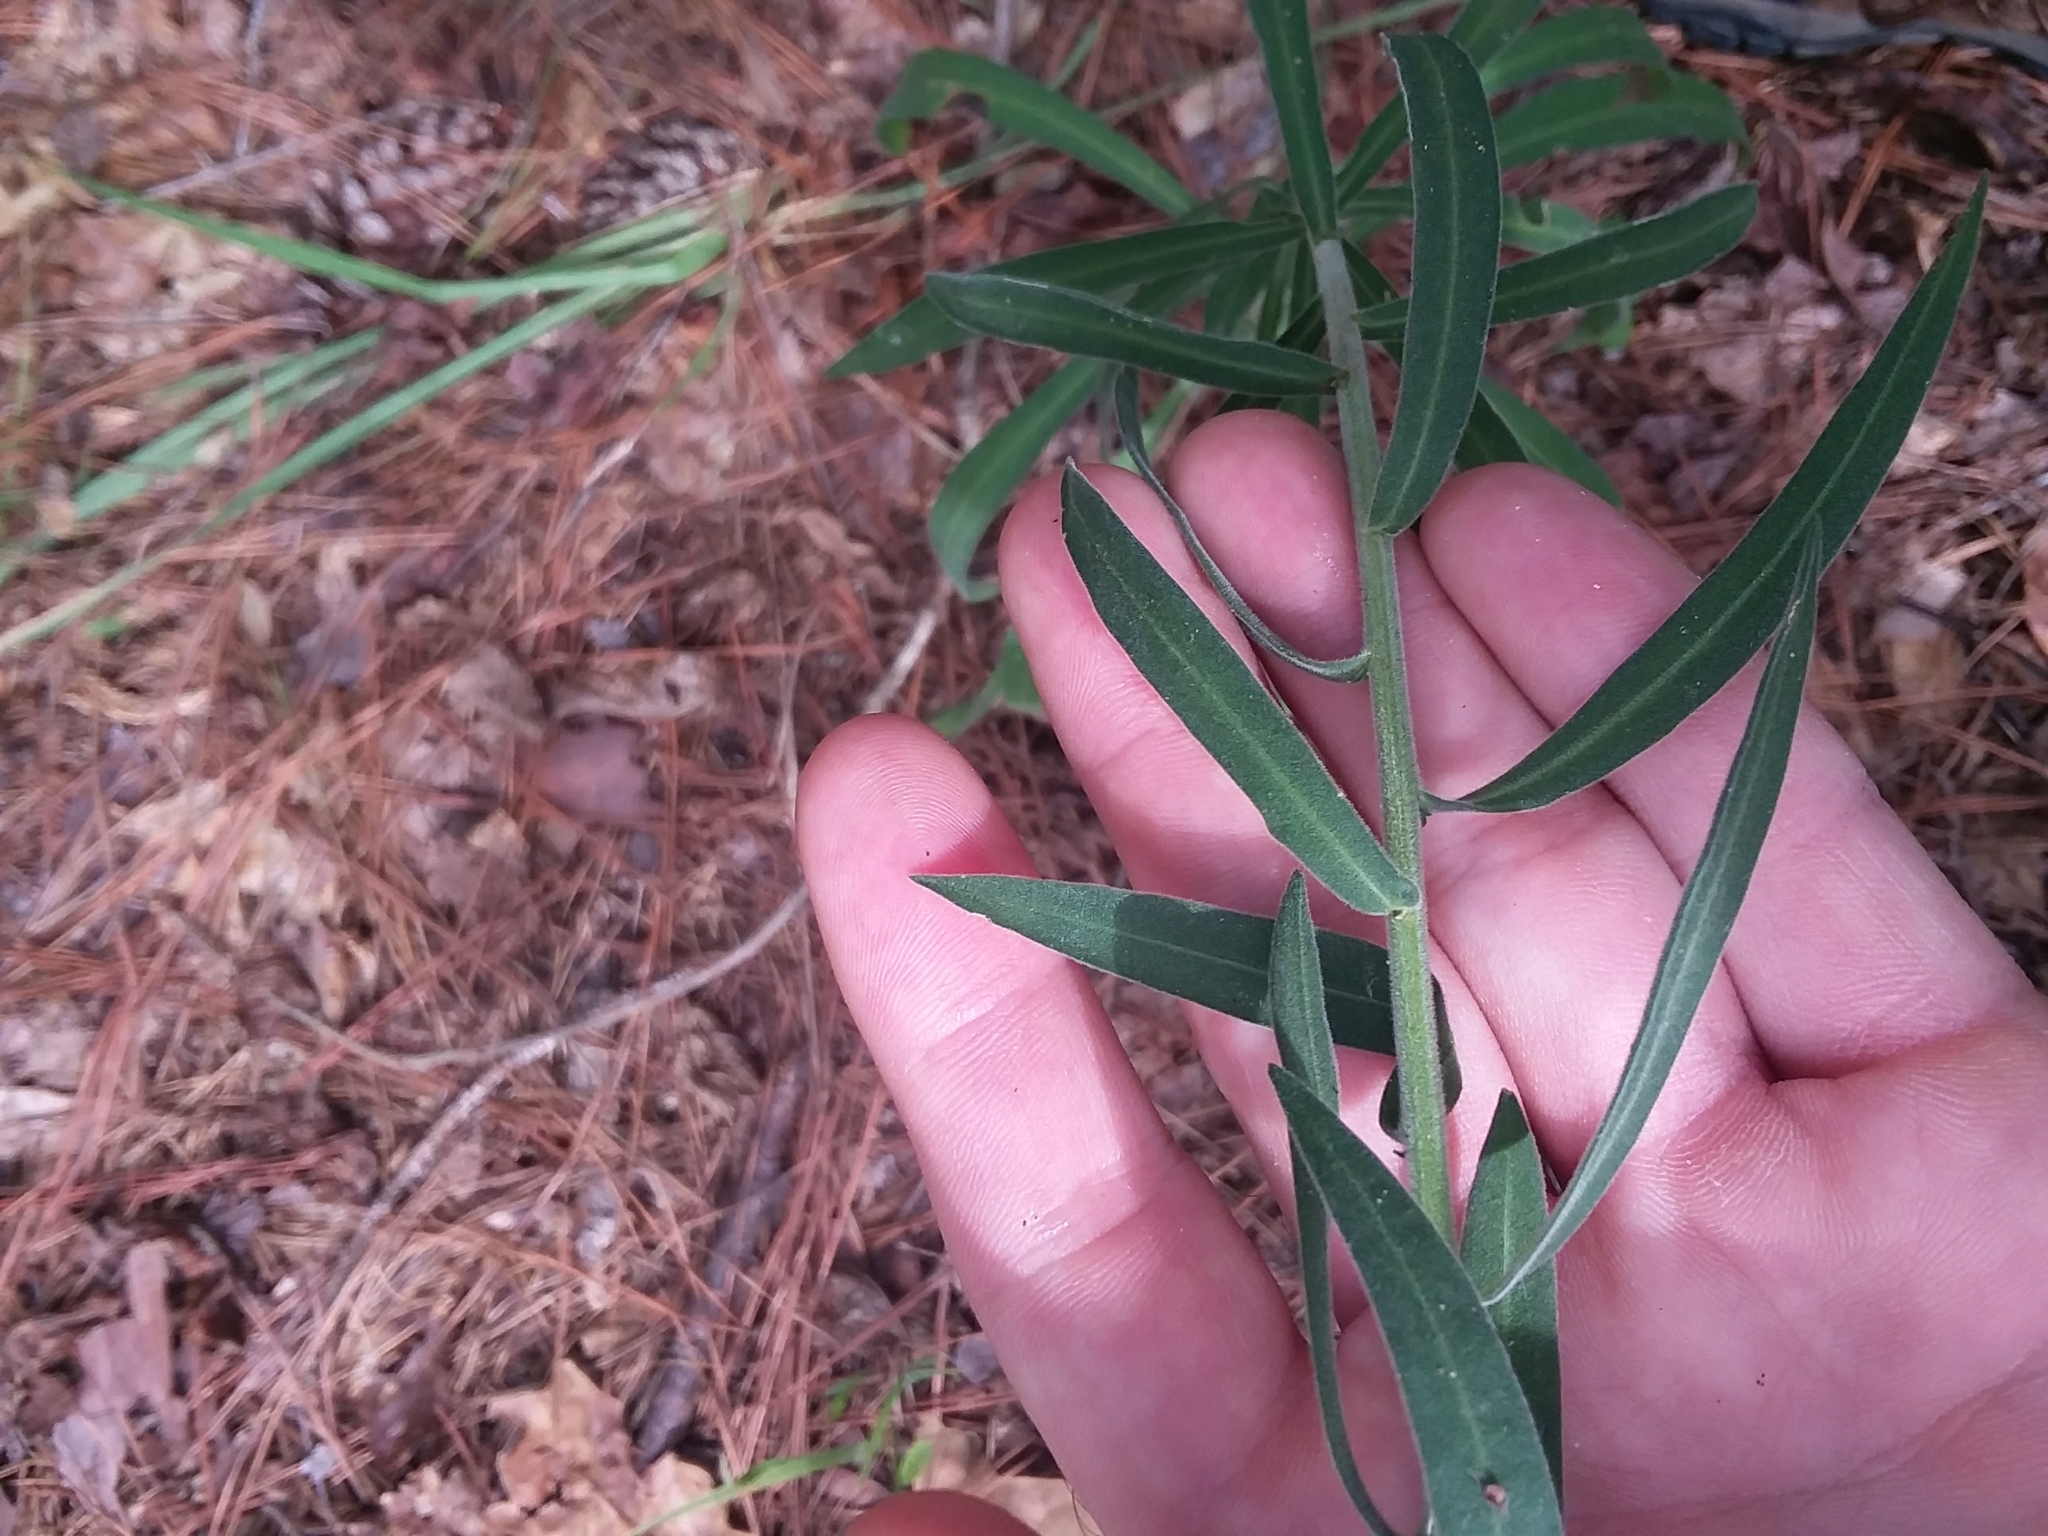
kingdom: Plantae
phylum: Tracheophyta
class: Magnoliopsida
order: Asterales
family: Asteraceae
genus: Liatris
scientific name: Liatris squarrulosa
